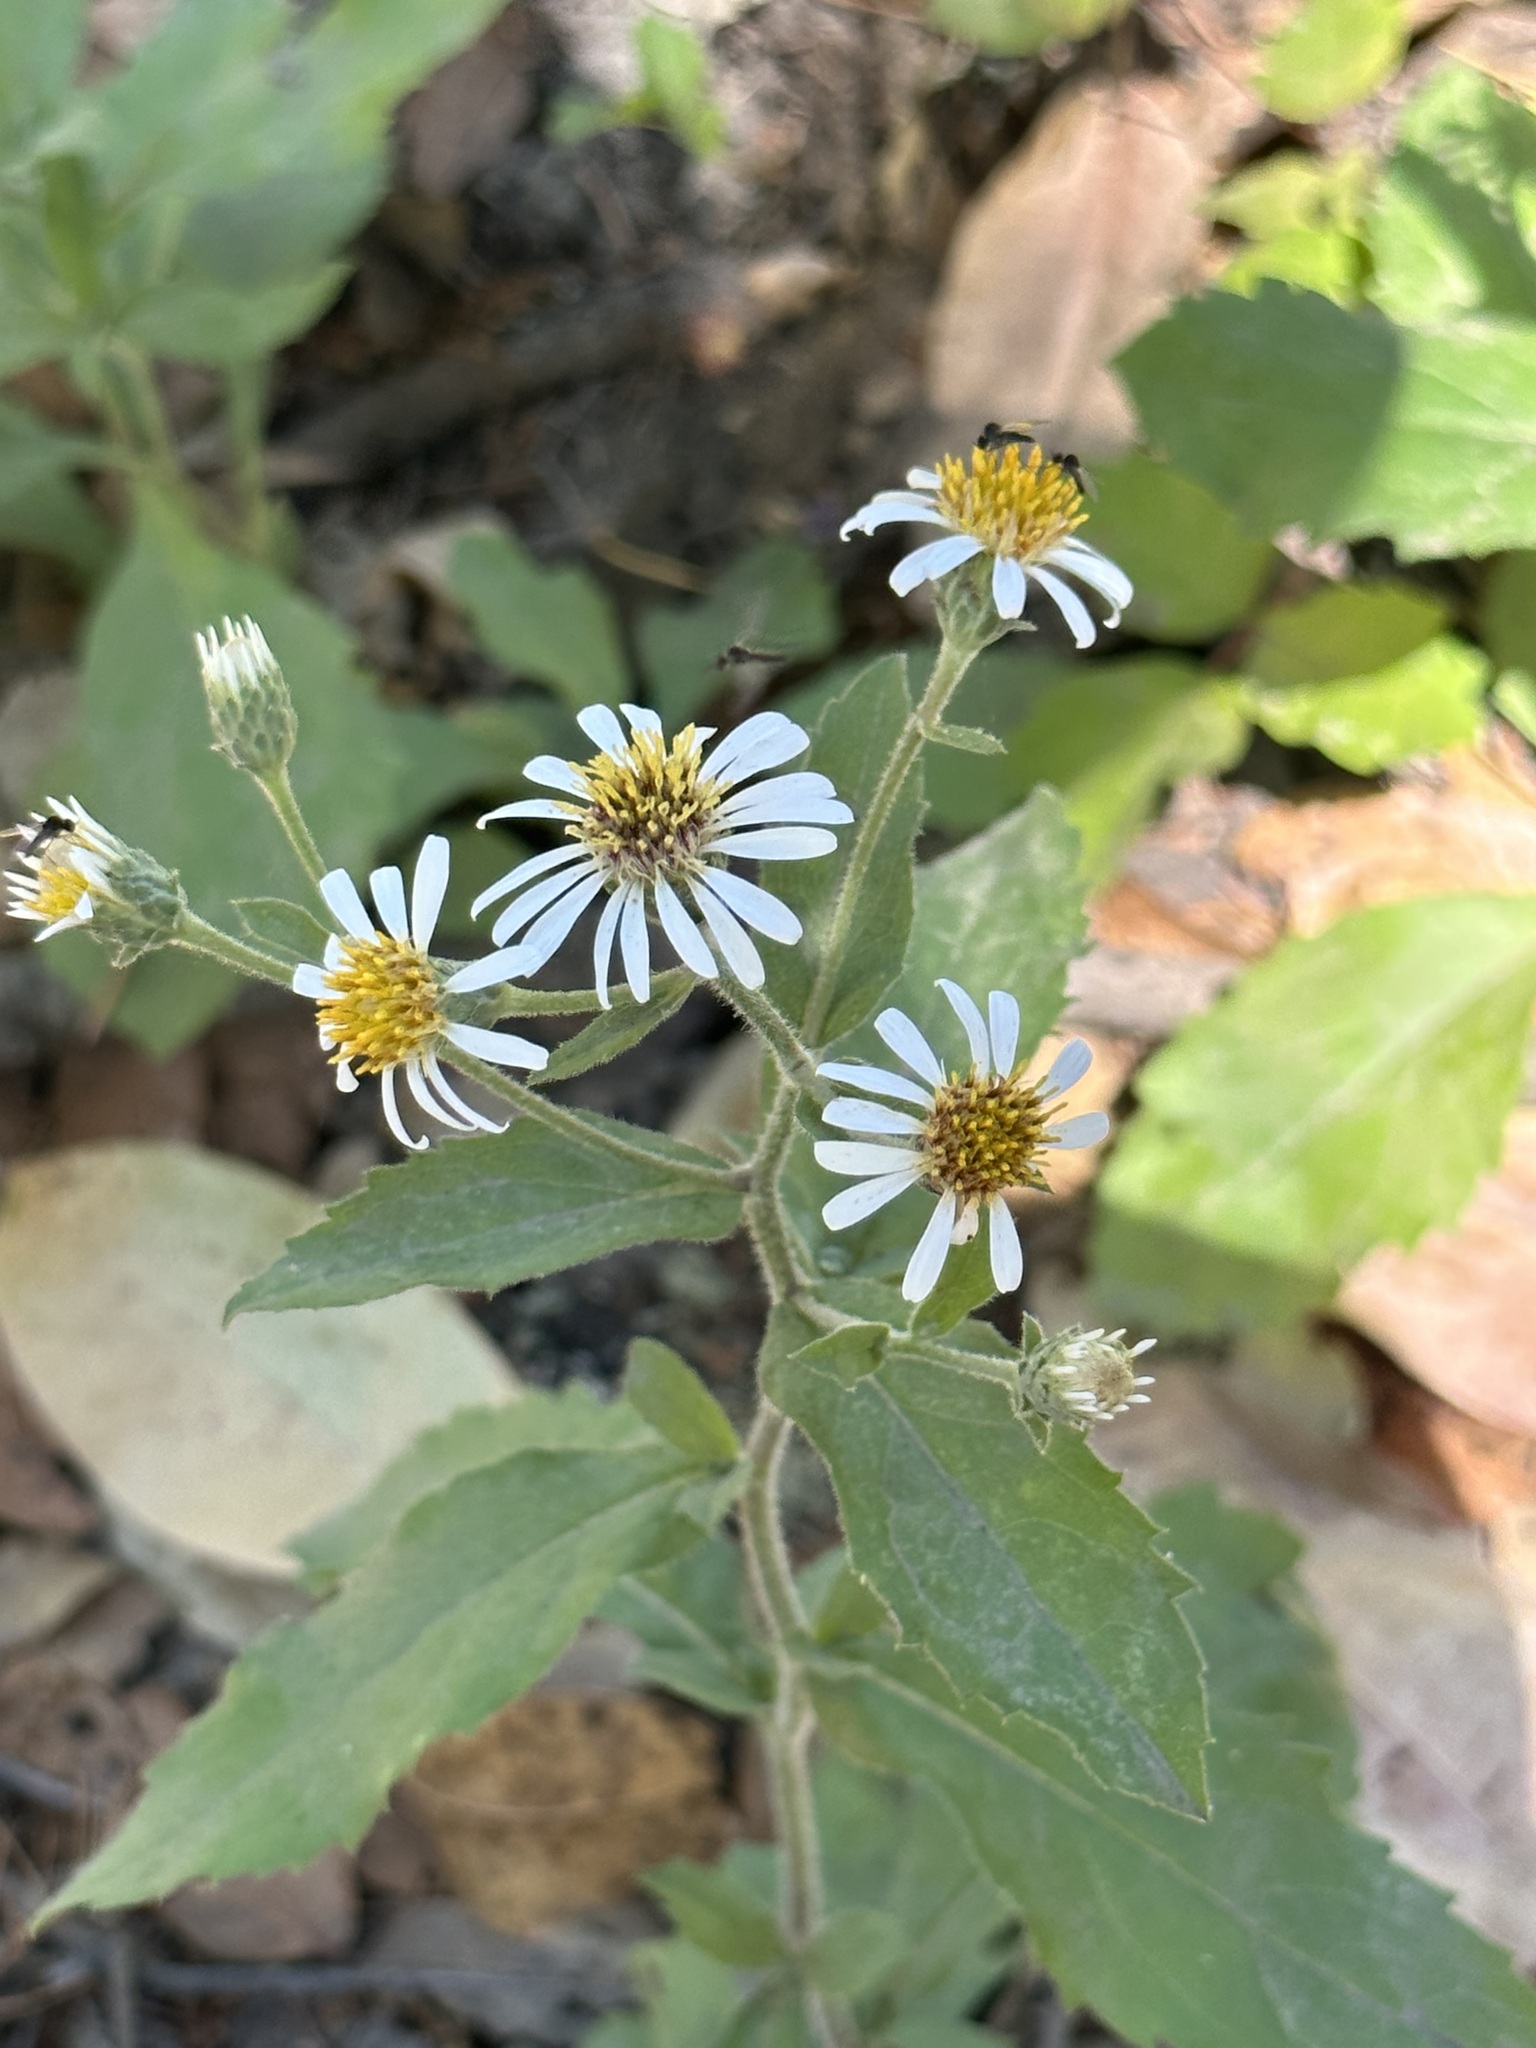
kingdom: Plantae
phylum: Tracheophyta
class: Magnoliopsida
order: Asterales
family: Asteraceae
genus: Eurybia
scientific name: Eurybia radulina
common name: Rough-leaved aster
